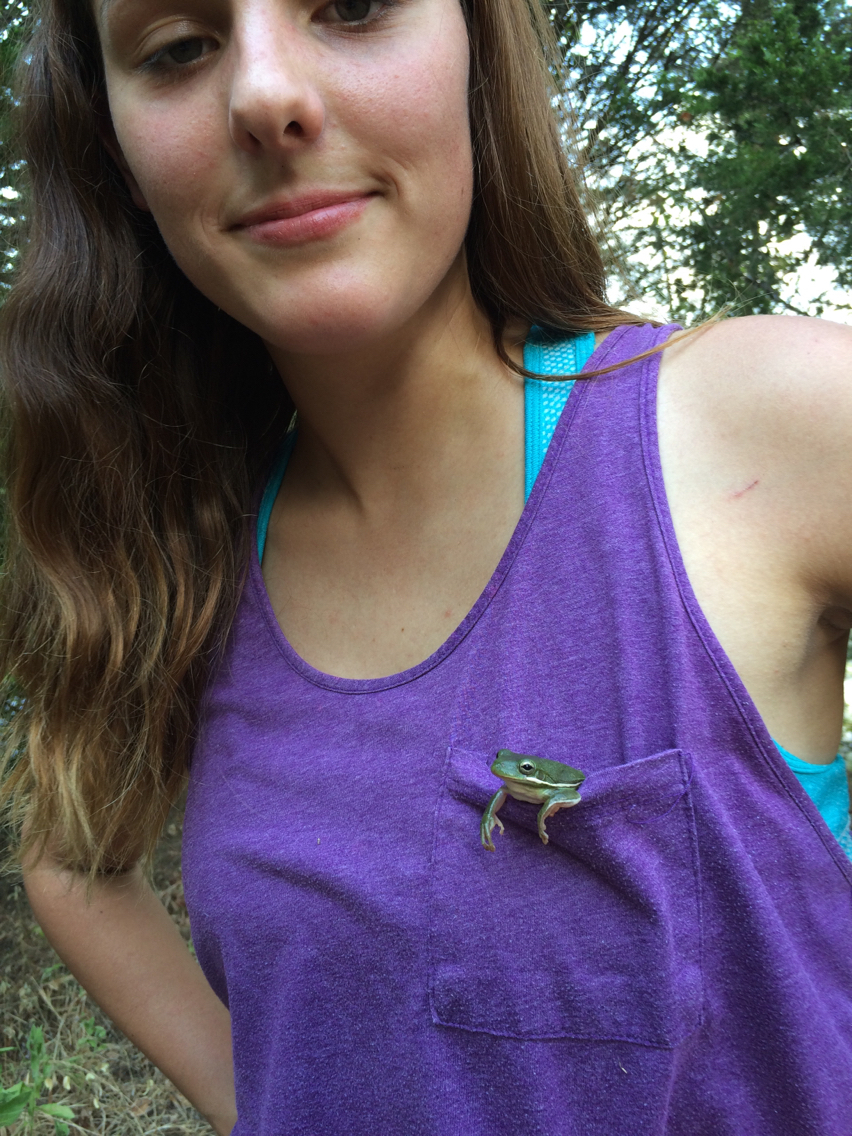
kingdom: Animalia
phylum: Chordata
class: Amphibia
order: Anura
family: Hylidae
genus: Dryophytes
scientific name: Dryophytes cinereus
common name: Green treefrog
